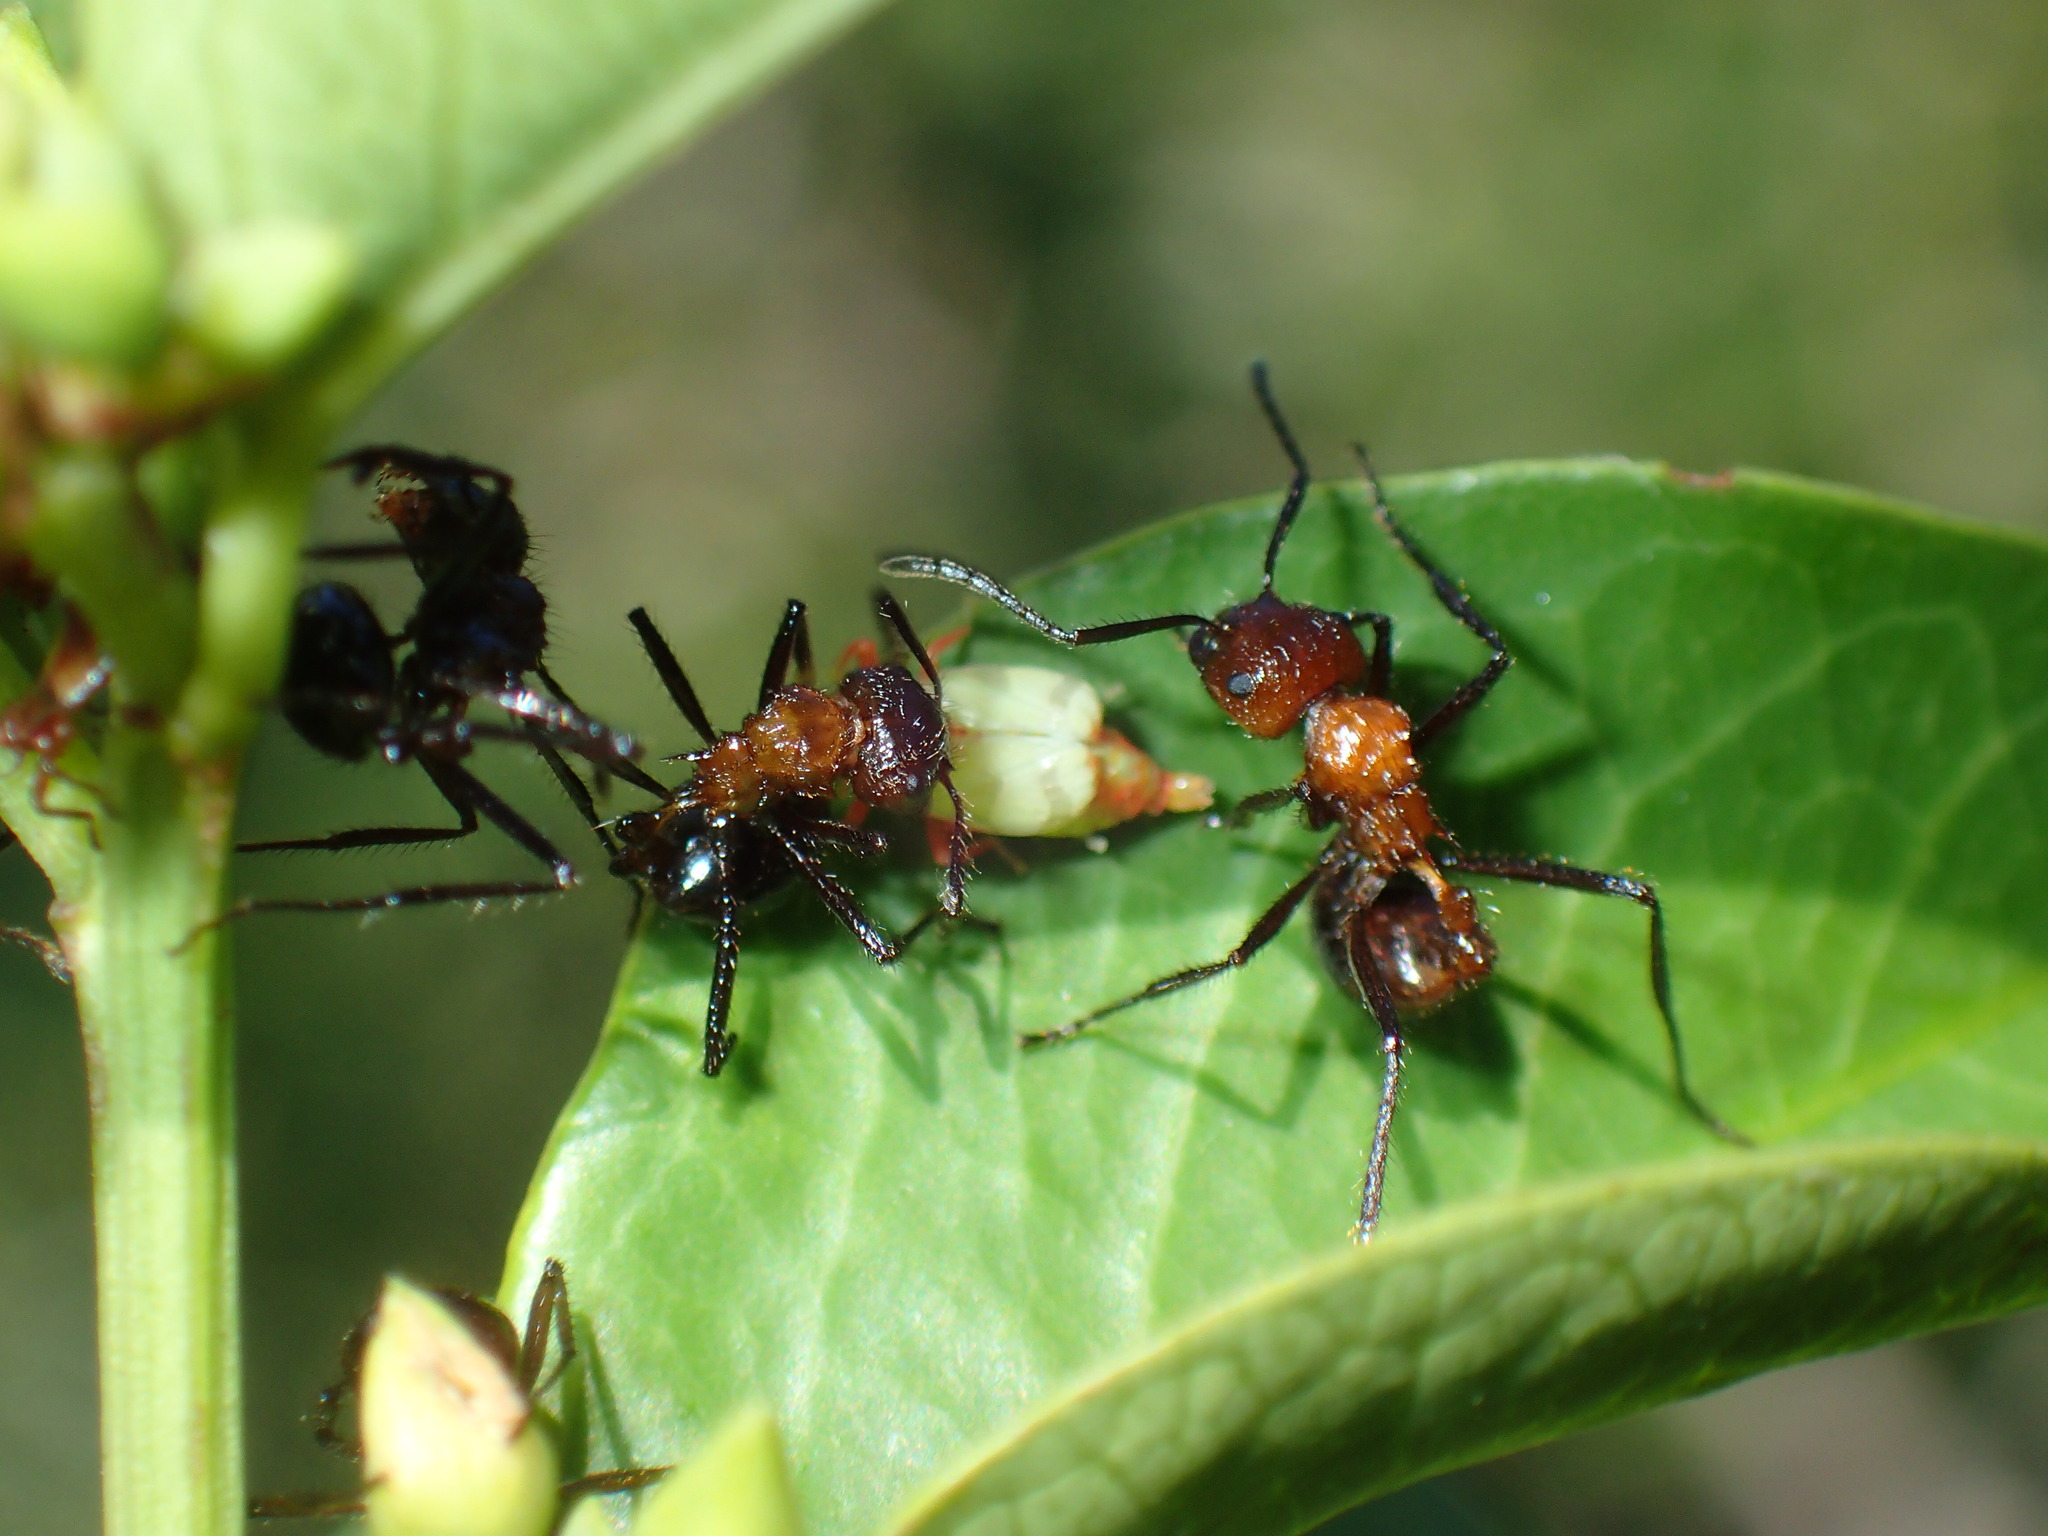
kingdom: Animalia
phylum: Arthropoda
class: Insecta
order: Hymenoptera
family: Formicidae
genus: Myrmicaria
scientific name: Myrmicaria natalensis
